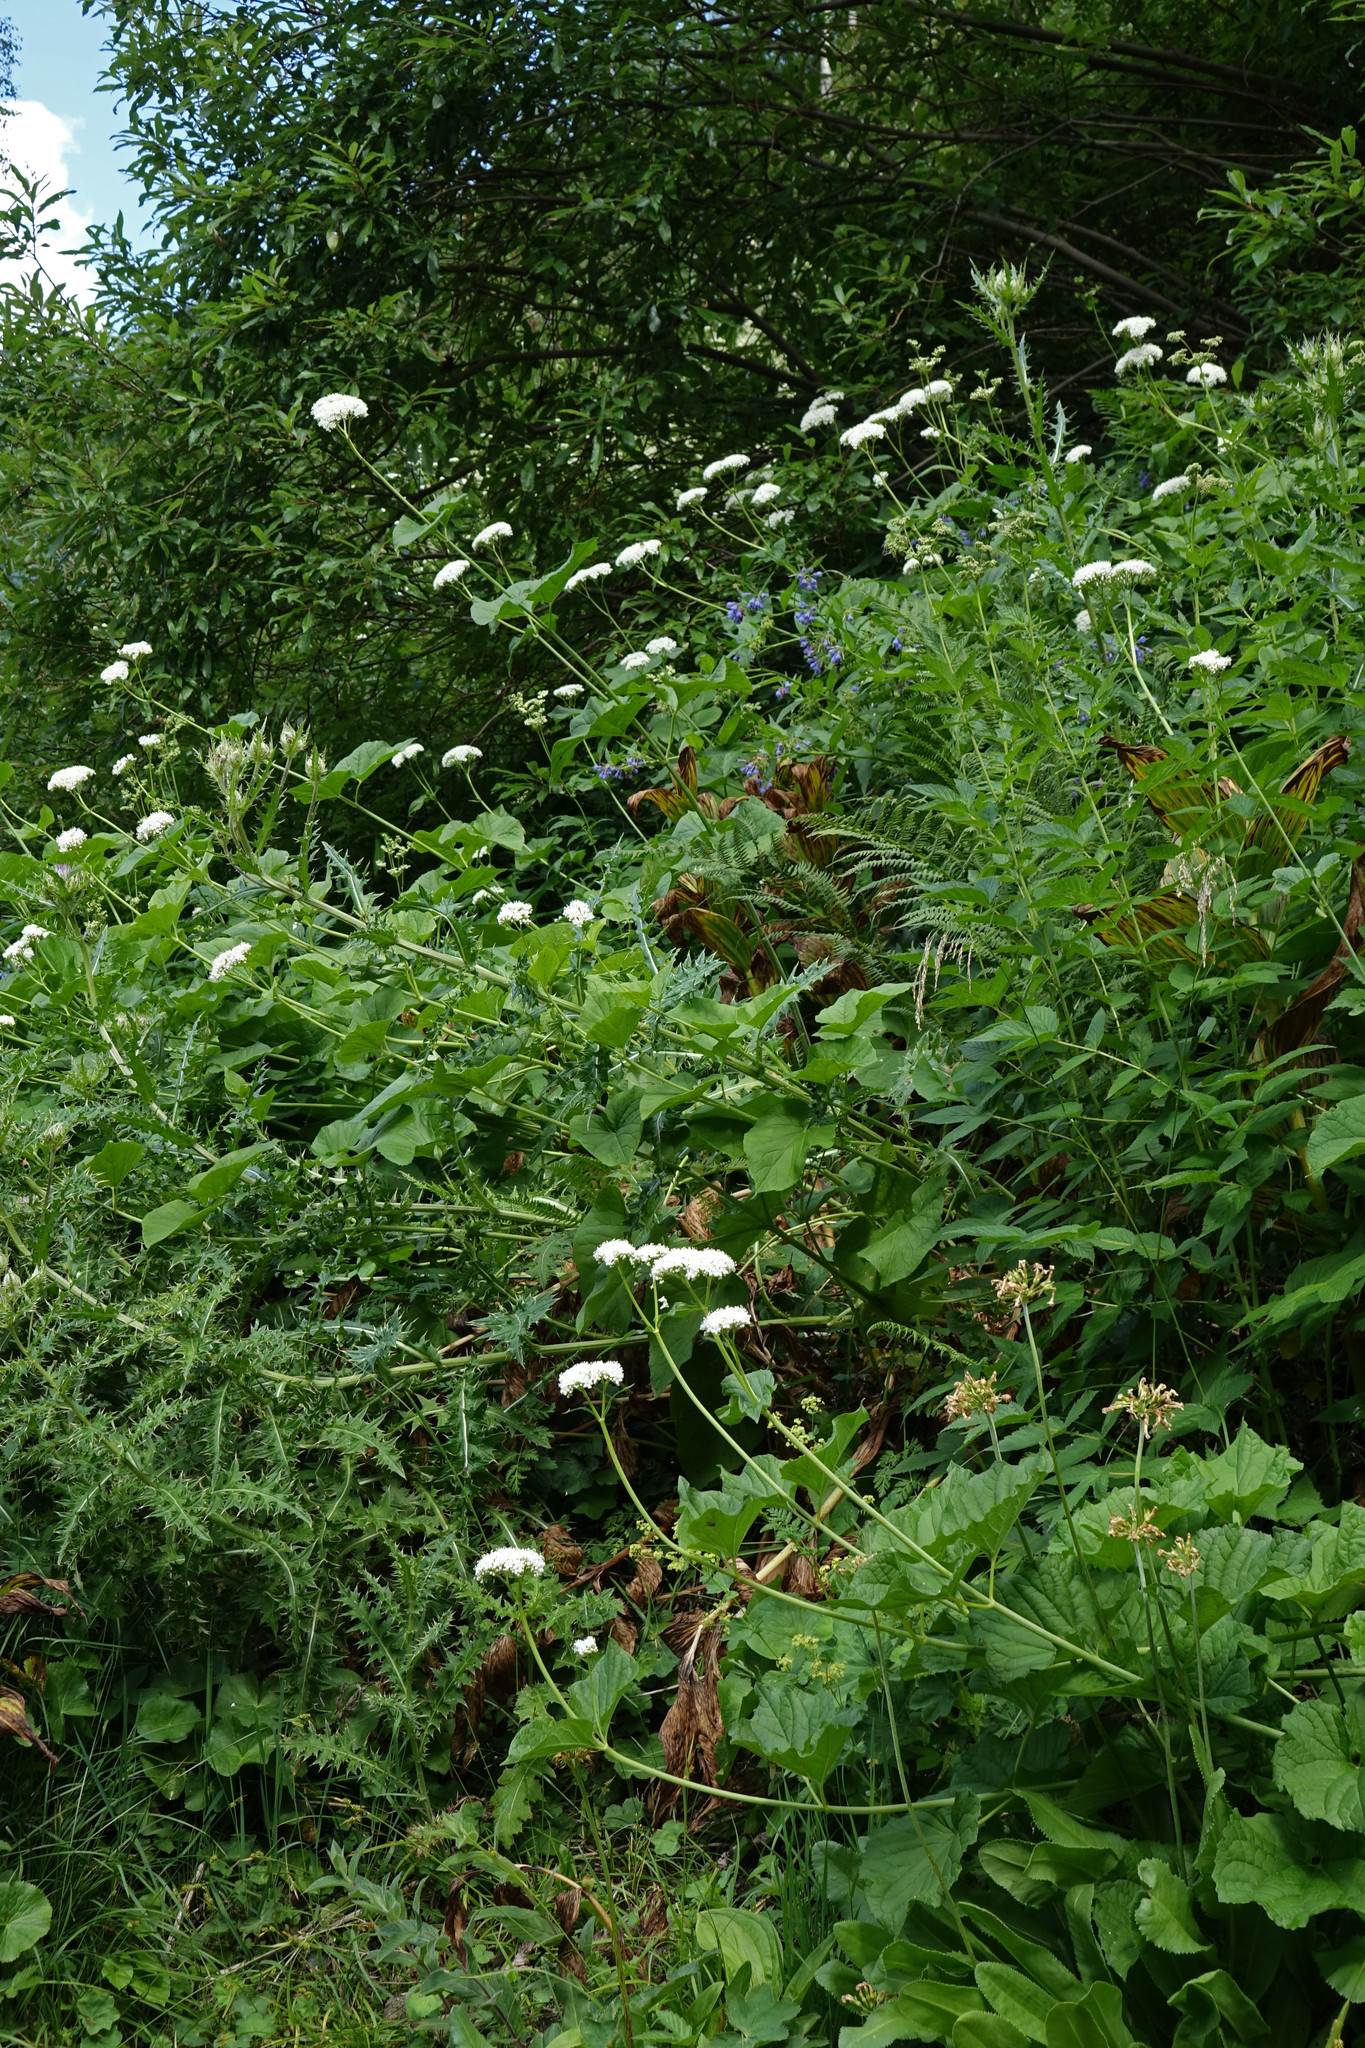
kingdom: Plantae
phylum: Tracheophyta
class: Magnoliopsida
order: Dipsacales
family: Caprifoliaceae
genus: Valeriana
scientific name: Valeriana alliariifolia
